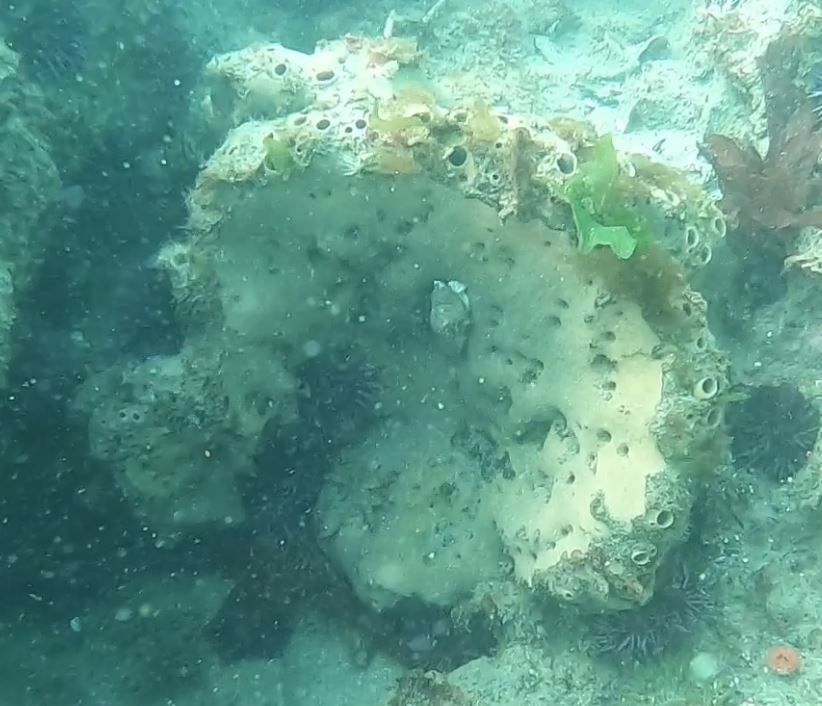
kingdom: Animalia
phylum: Porifera
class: Demospongiae
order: Clionaida
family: Clionaidae
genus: Spheciospongia
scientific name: Spheciospongia confoederata
